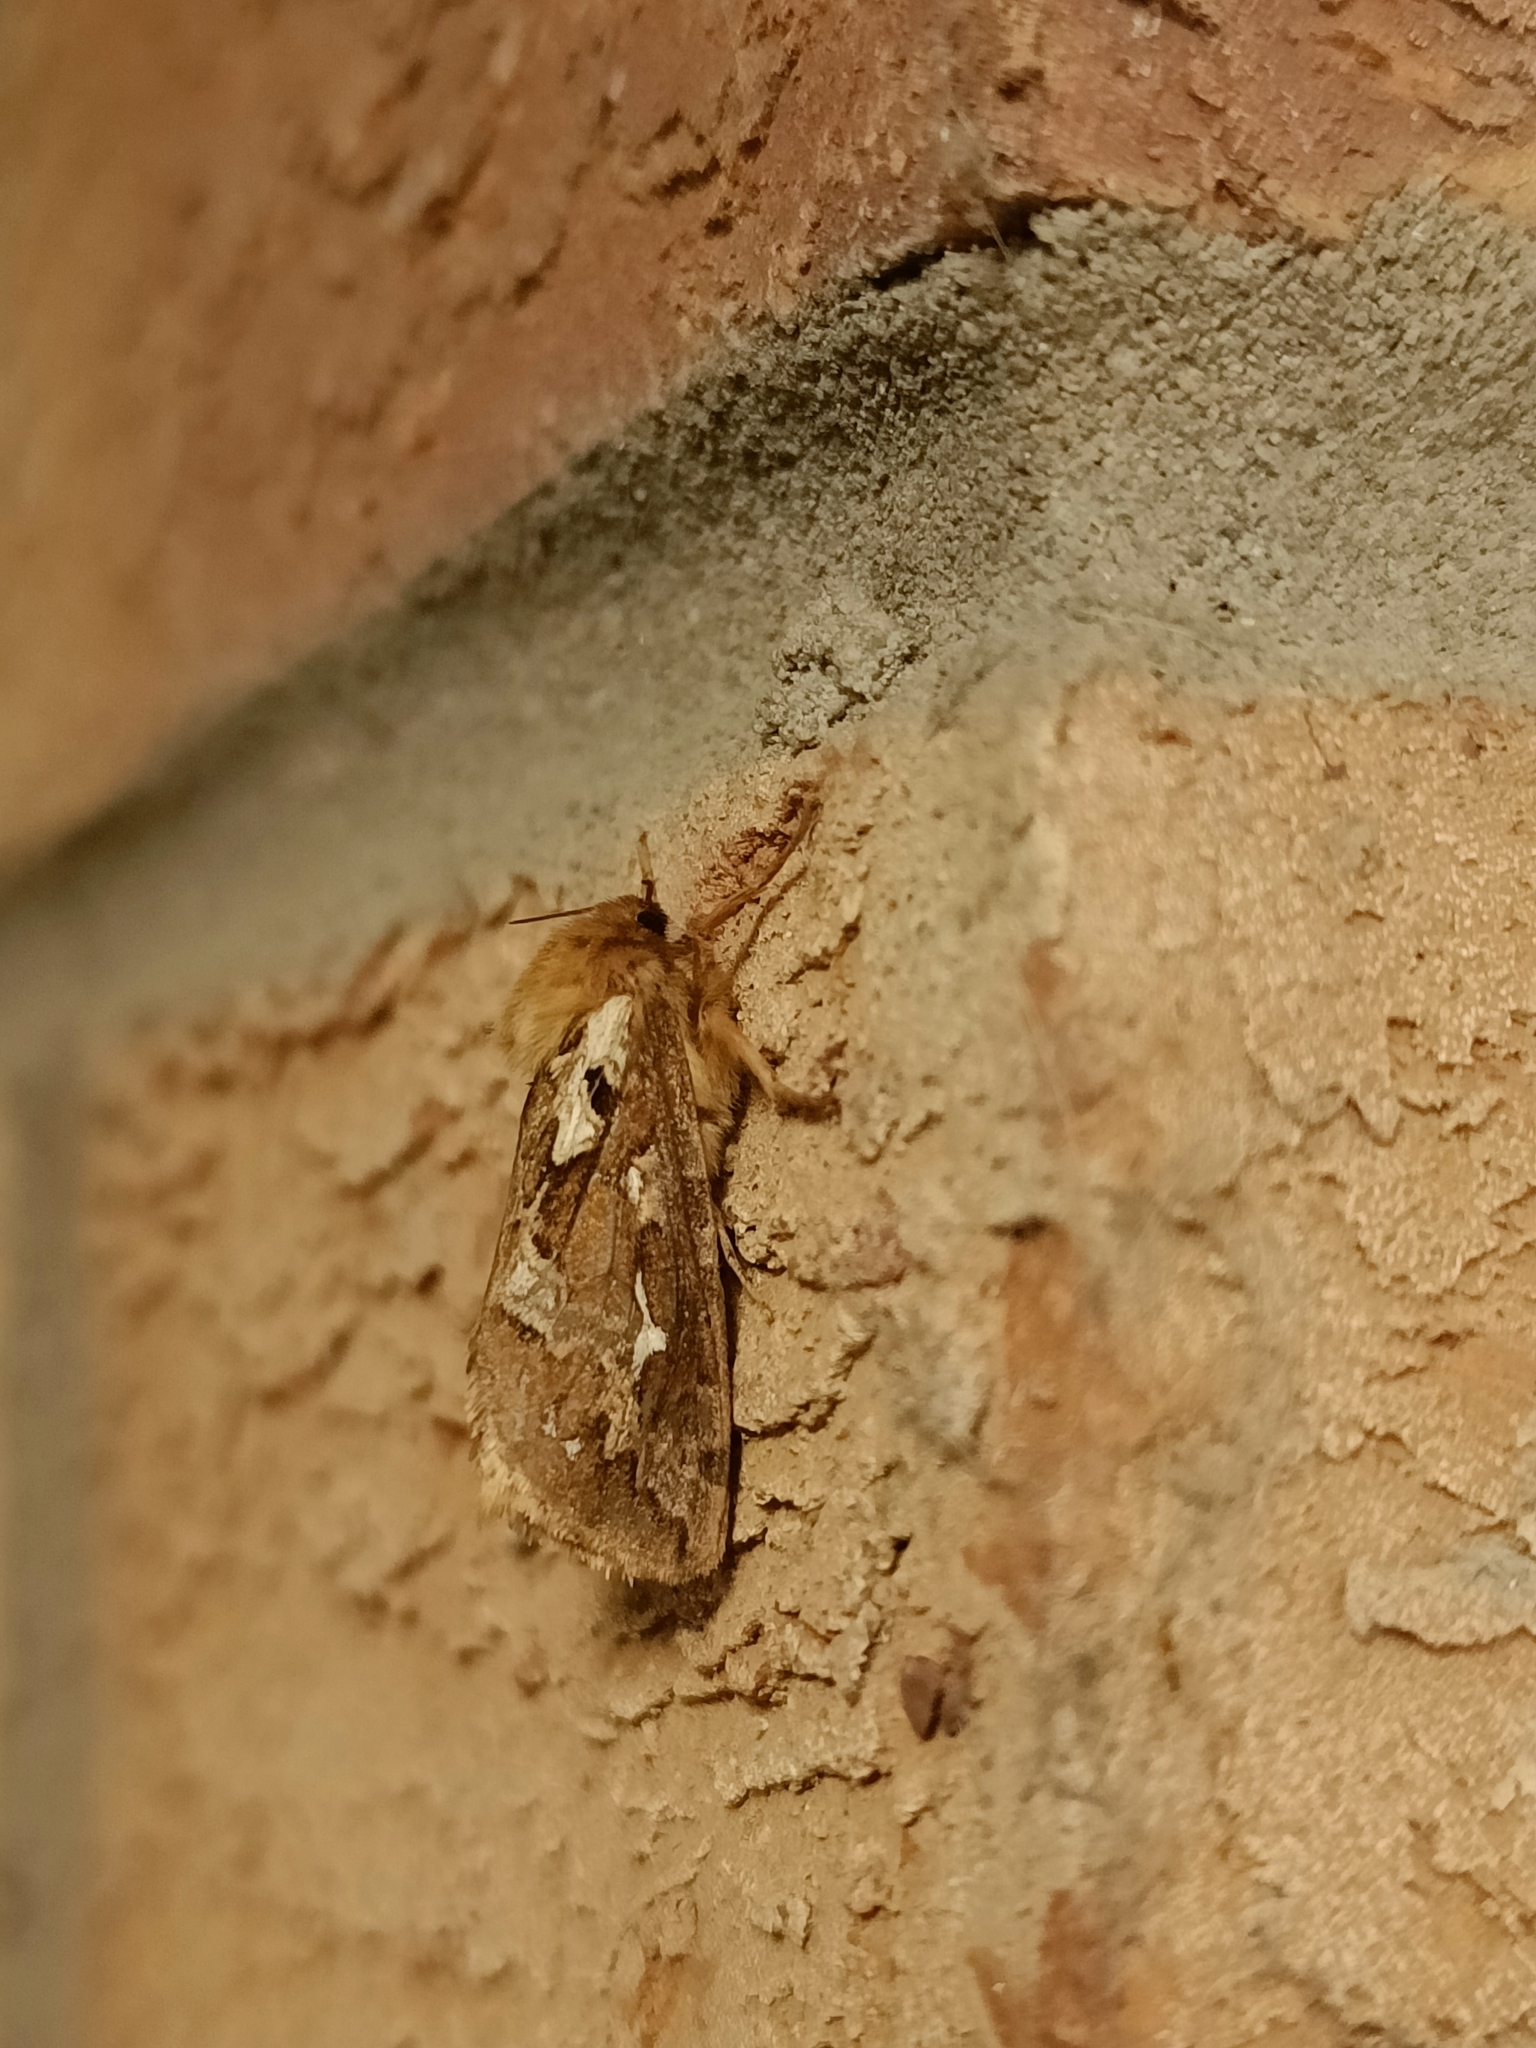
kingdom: Animalia
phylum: Arthropoda
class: Insecta
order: Lepidoptera
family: Hepialidae
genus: Korscheltellus
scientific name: Korscheltellus fusconebulosus
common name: Map-winged swift
